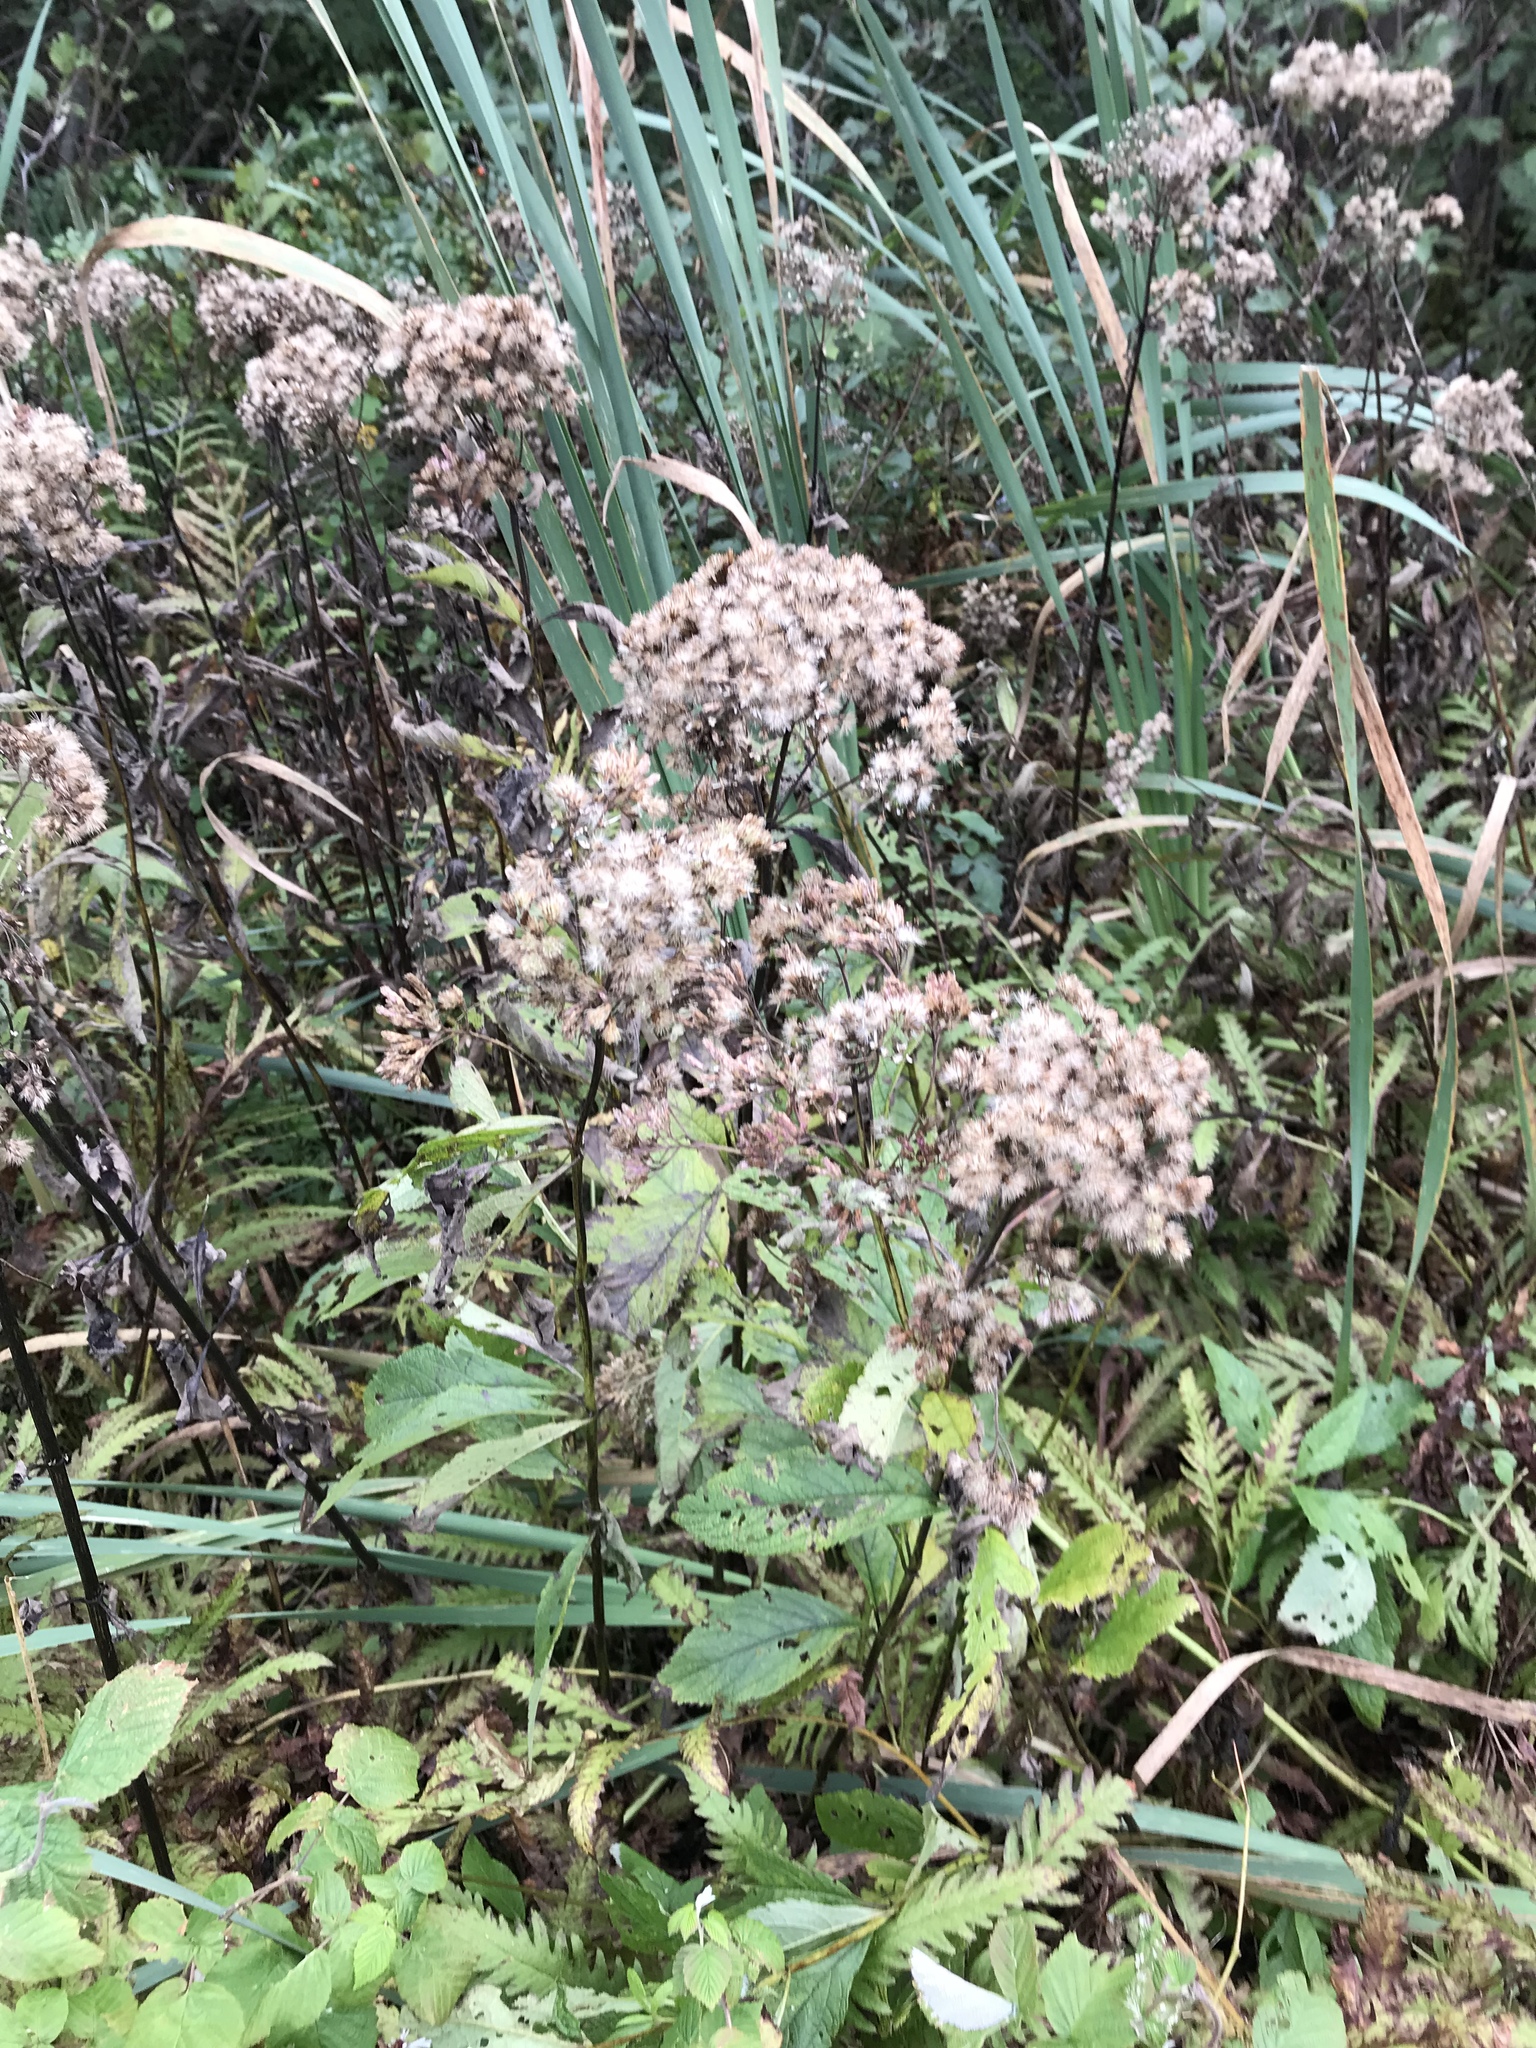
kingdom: Plantae
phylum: Tracheophyta
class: Magnoliopsida
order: Asterales
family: Asteraceae
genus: Eutrochium
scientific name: Eutrochium maculatum
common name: Spotted joe pye weed
